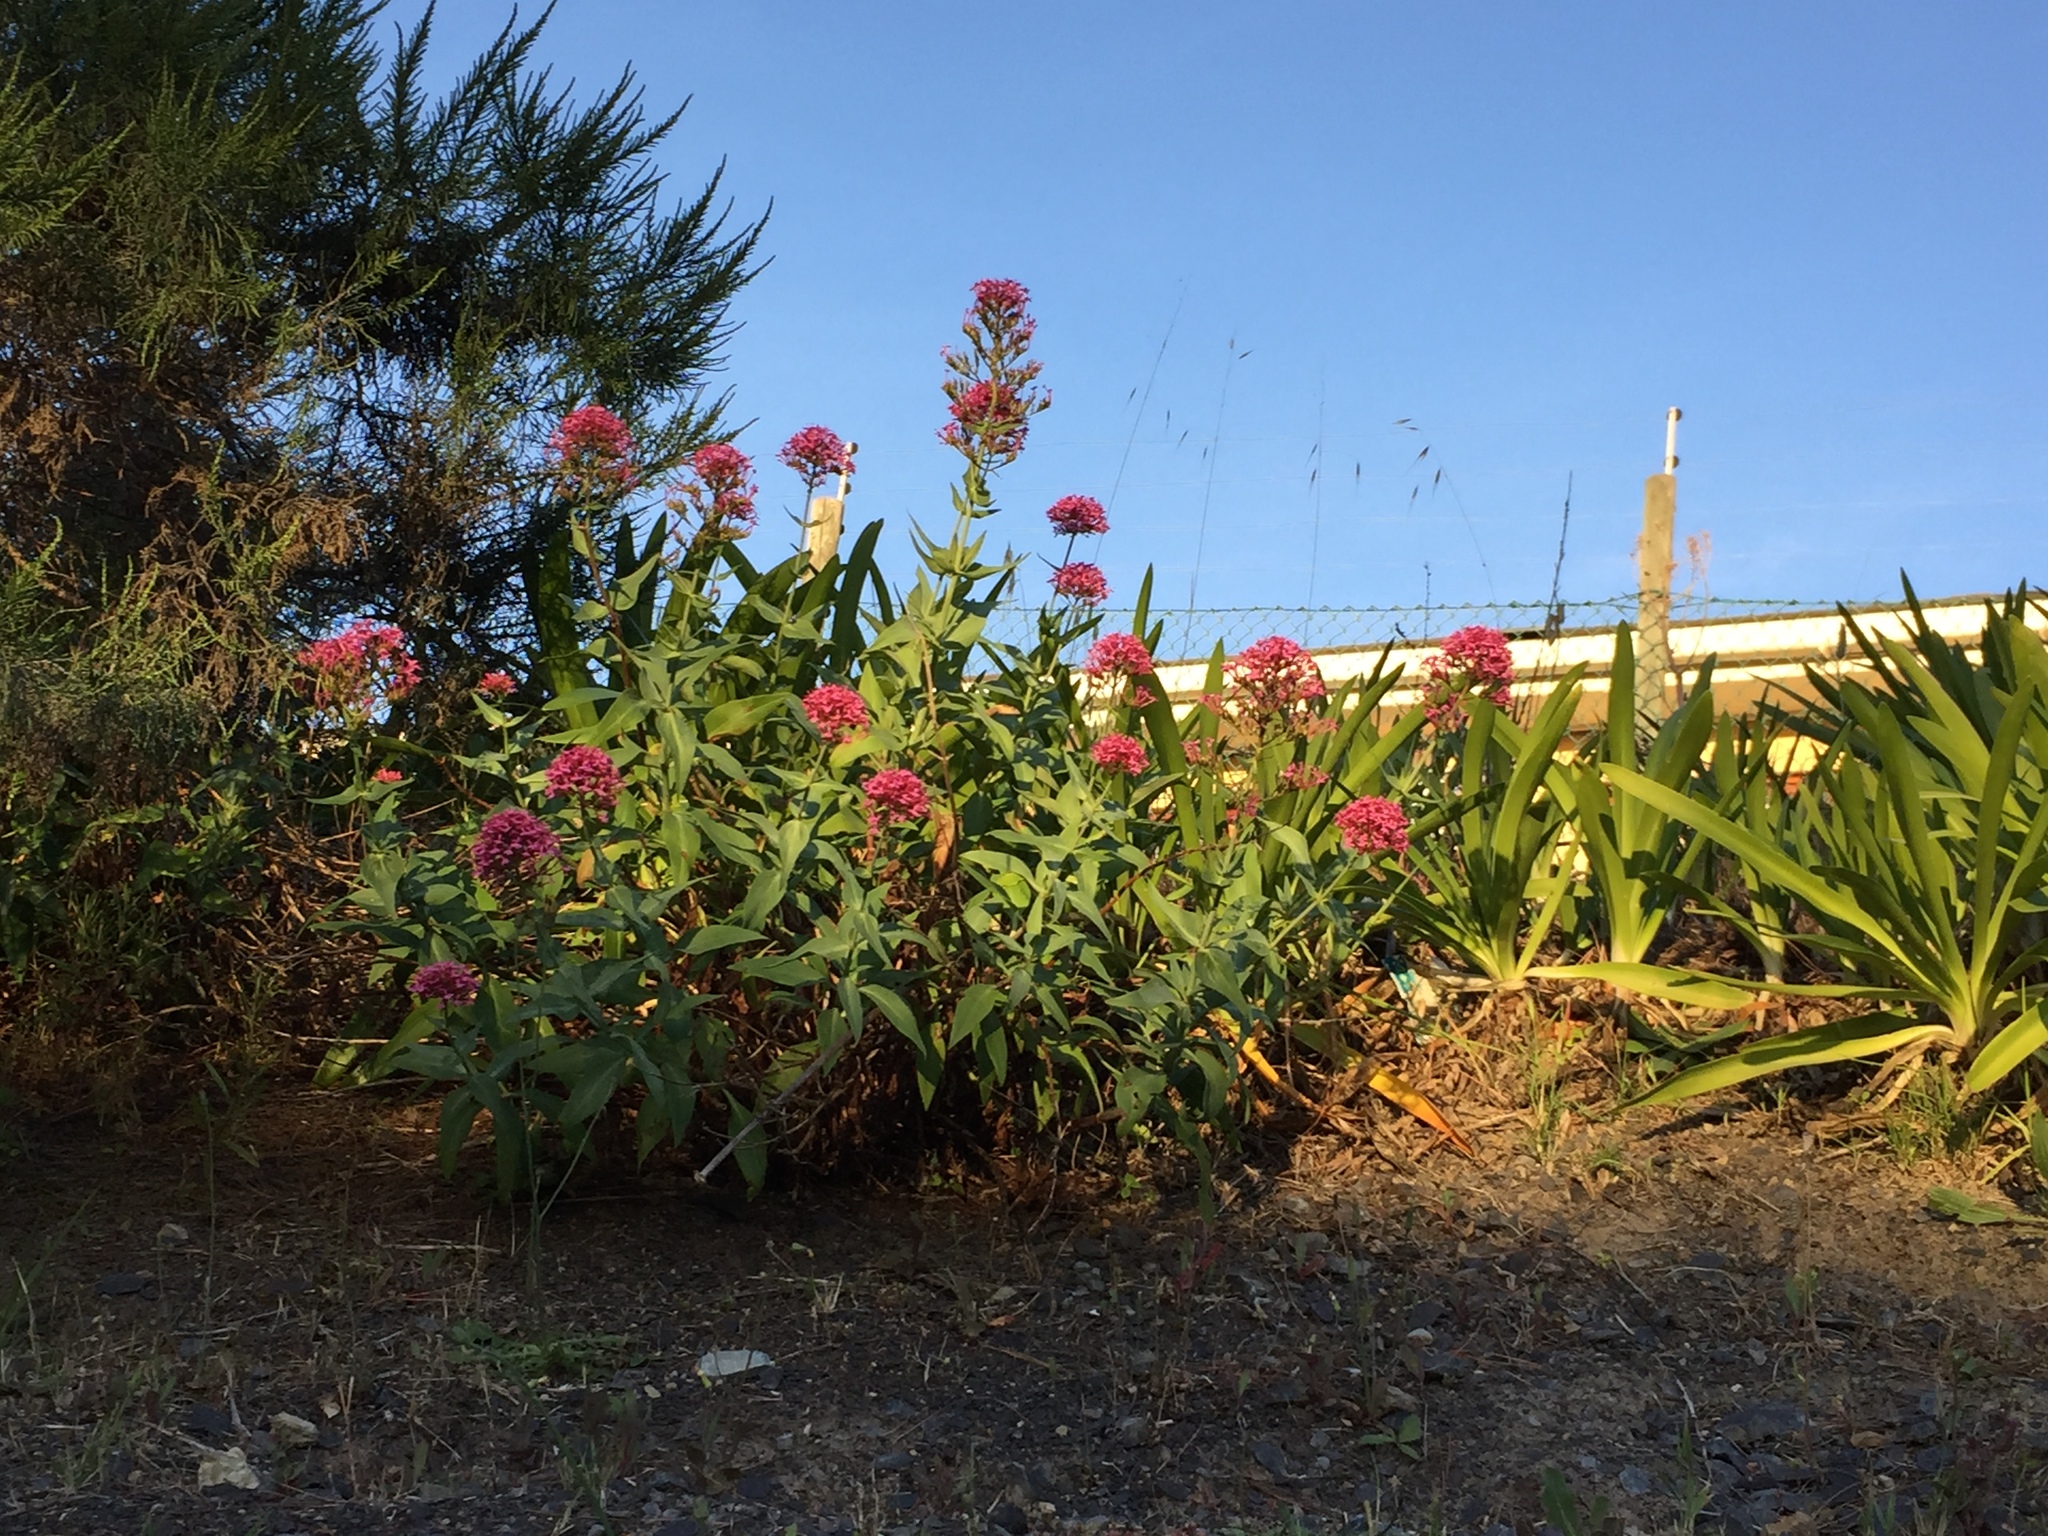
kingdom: Plantae
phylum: Tracheophyta
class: Magnoliopsida
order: Dipsacales
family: Caprifoliaceae
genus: Centranthus
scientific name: Centranthus ruber
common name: Red valerian
